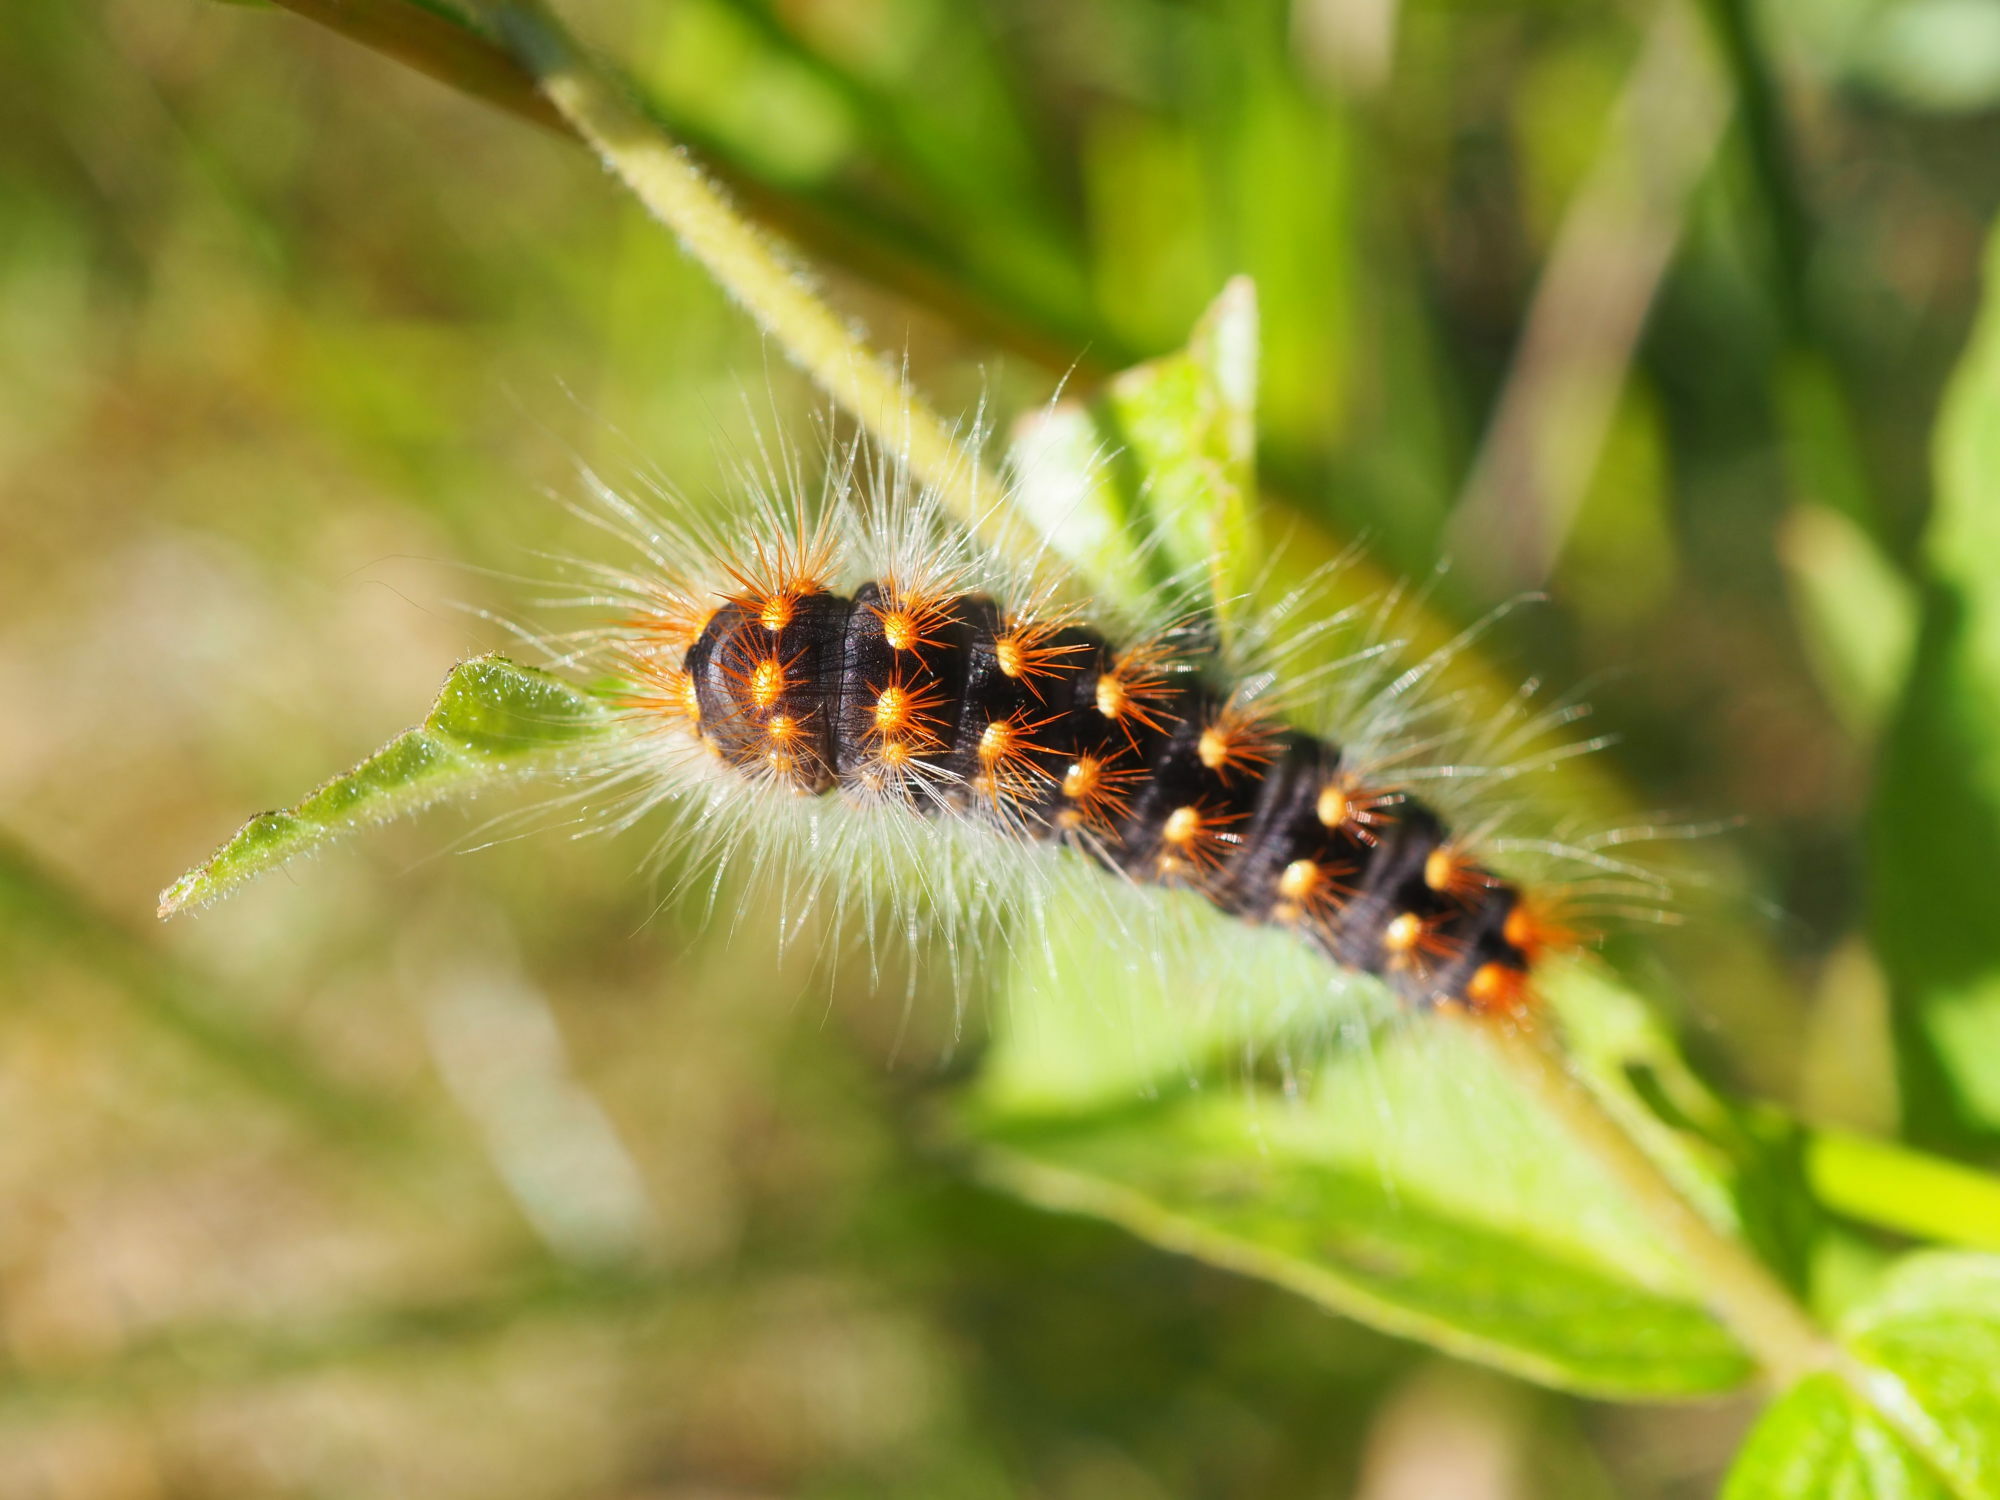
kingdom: Animalia
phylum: Arthropoda
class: Insecta
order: Lepidoptera
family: Noctuidae
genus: Acronicta
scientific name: Acronicta auricoma
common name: Scarce dagger
